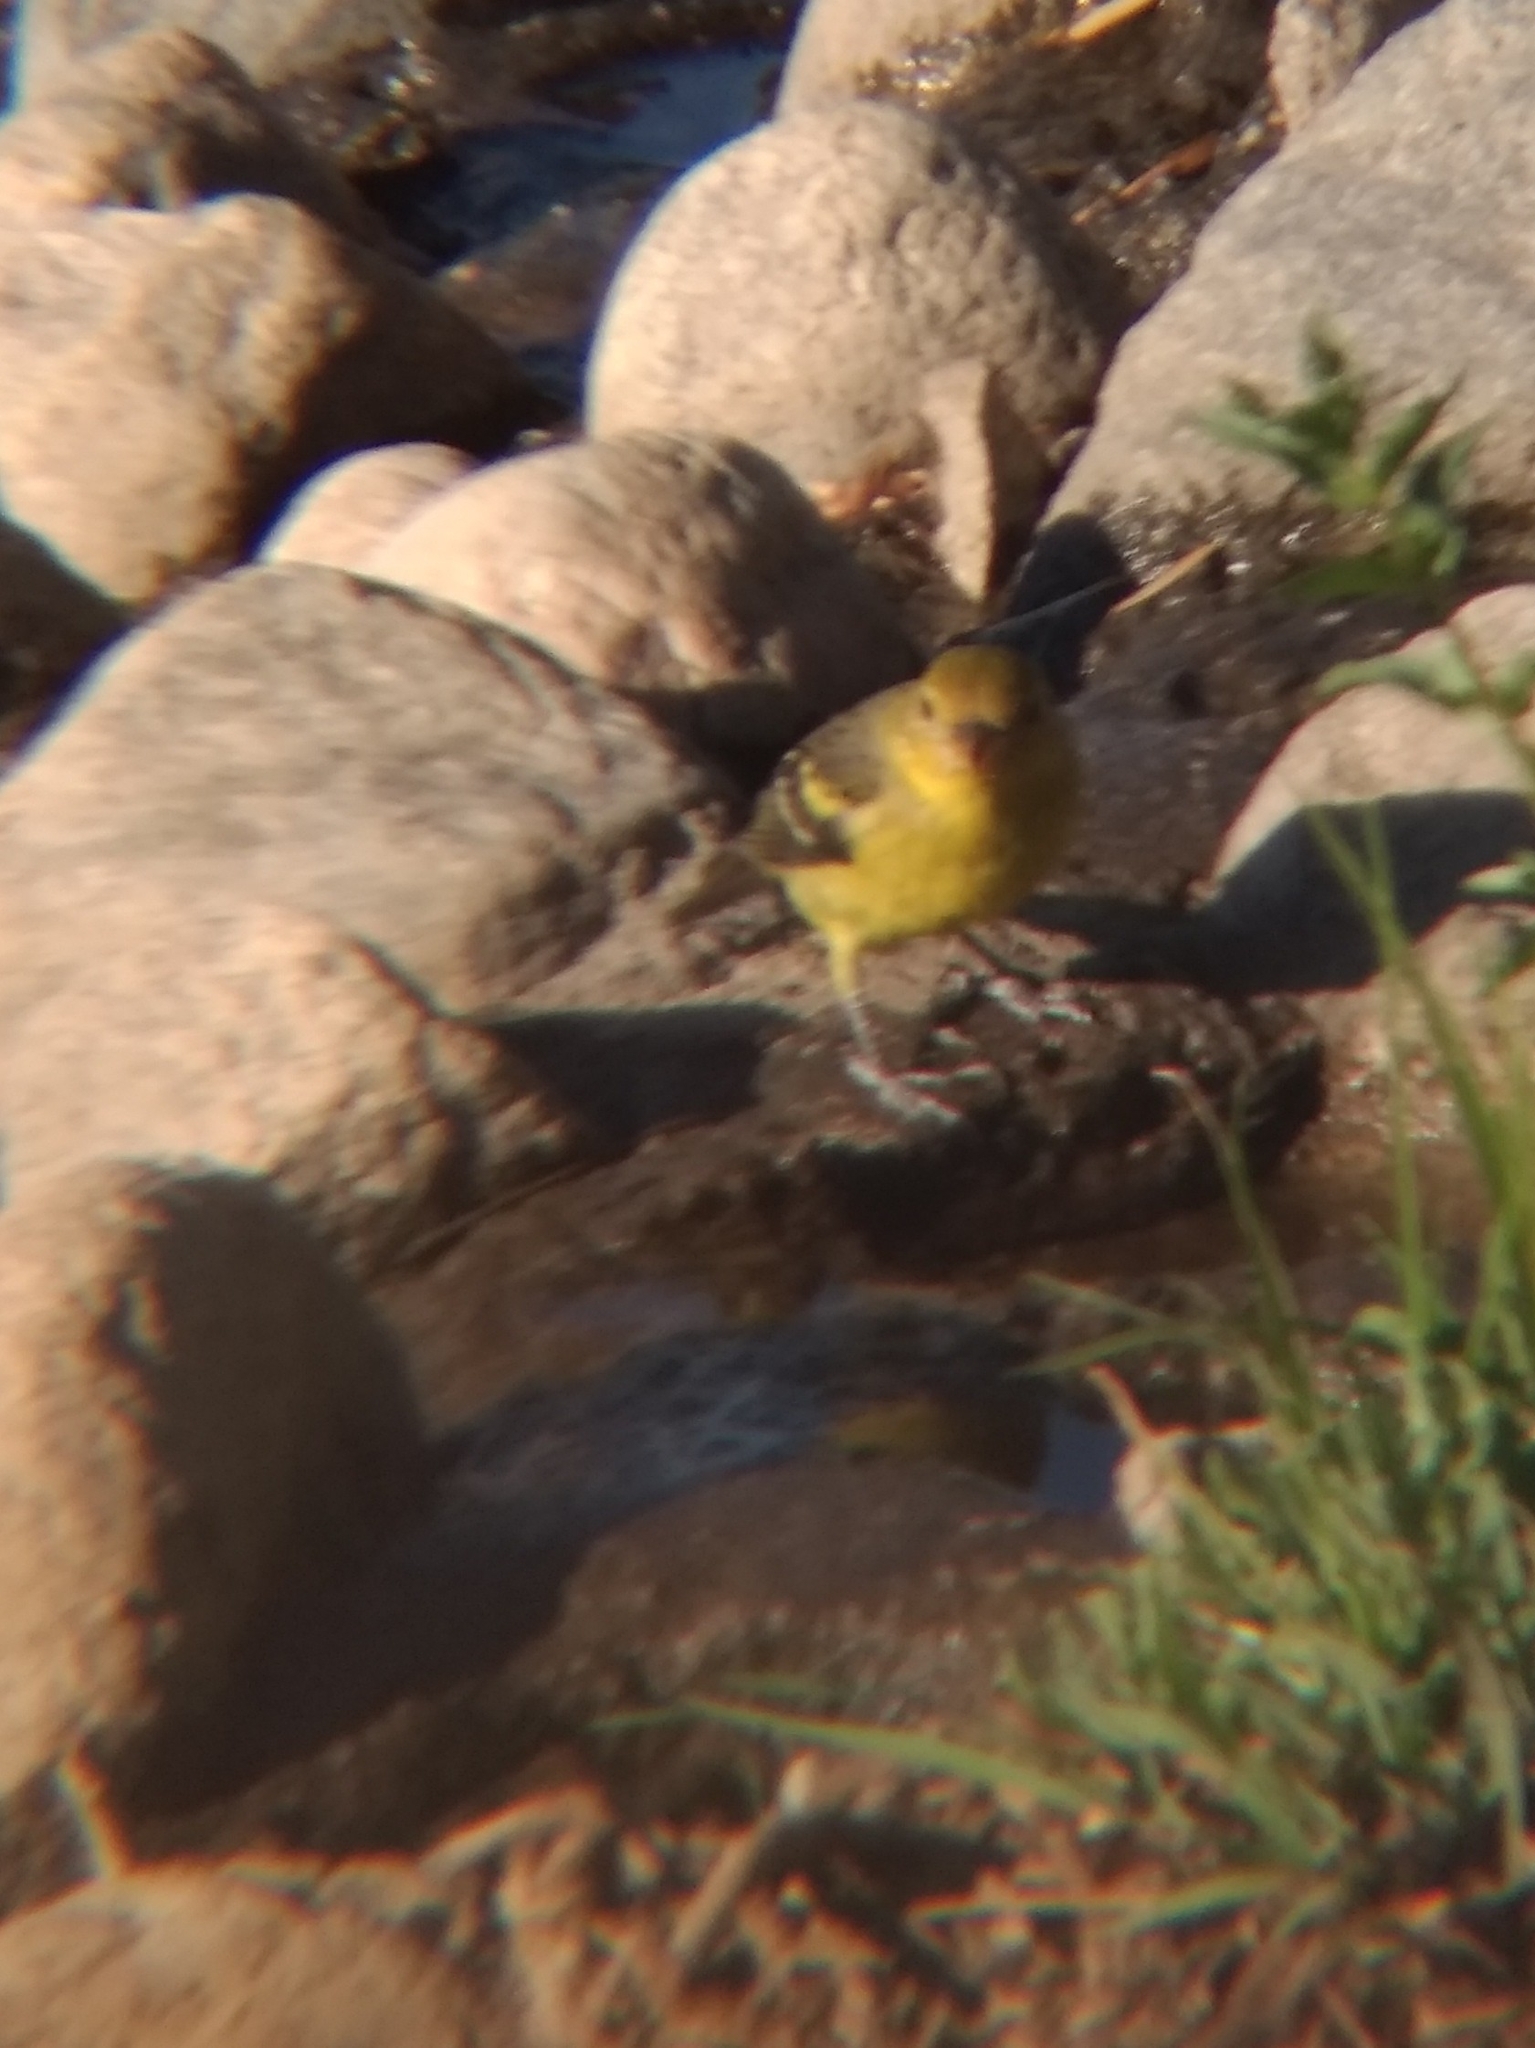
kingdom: Animalia
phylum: Chordata
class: Aves
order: Passeriformes
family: Cardinalidae
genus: Piranga
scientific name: Piranga ludoviciana
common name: Western tanager
